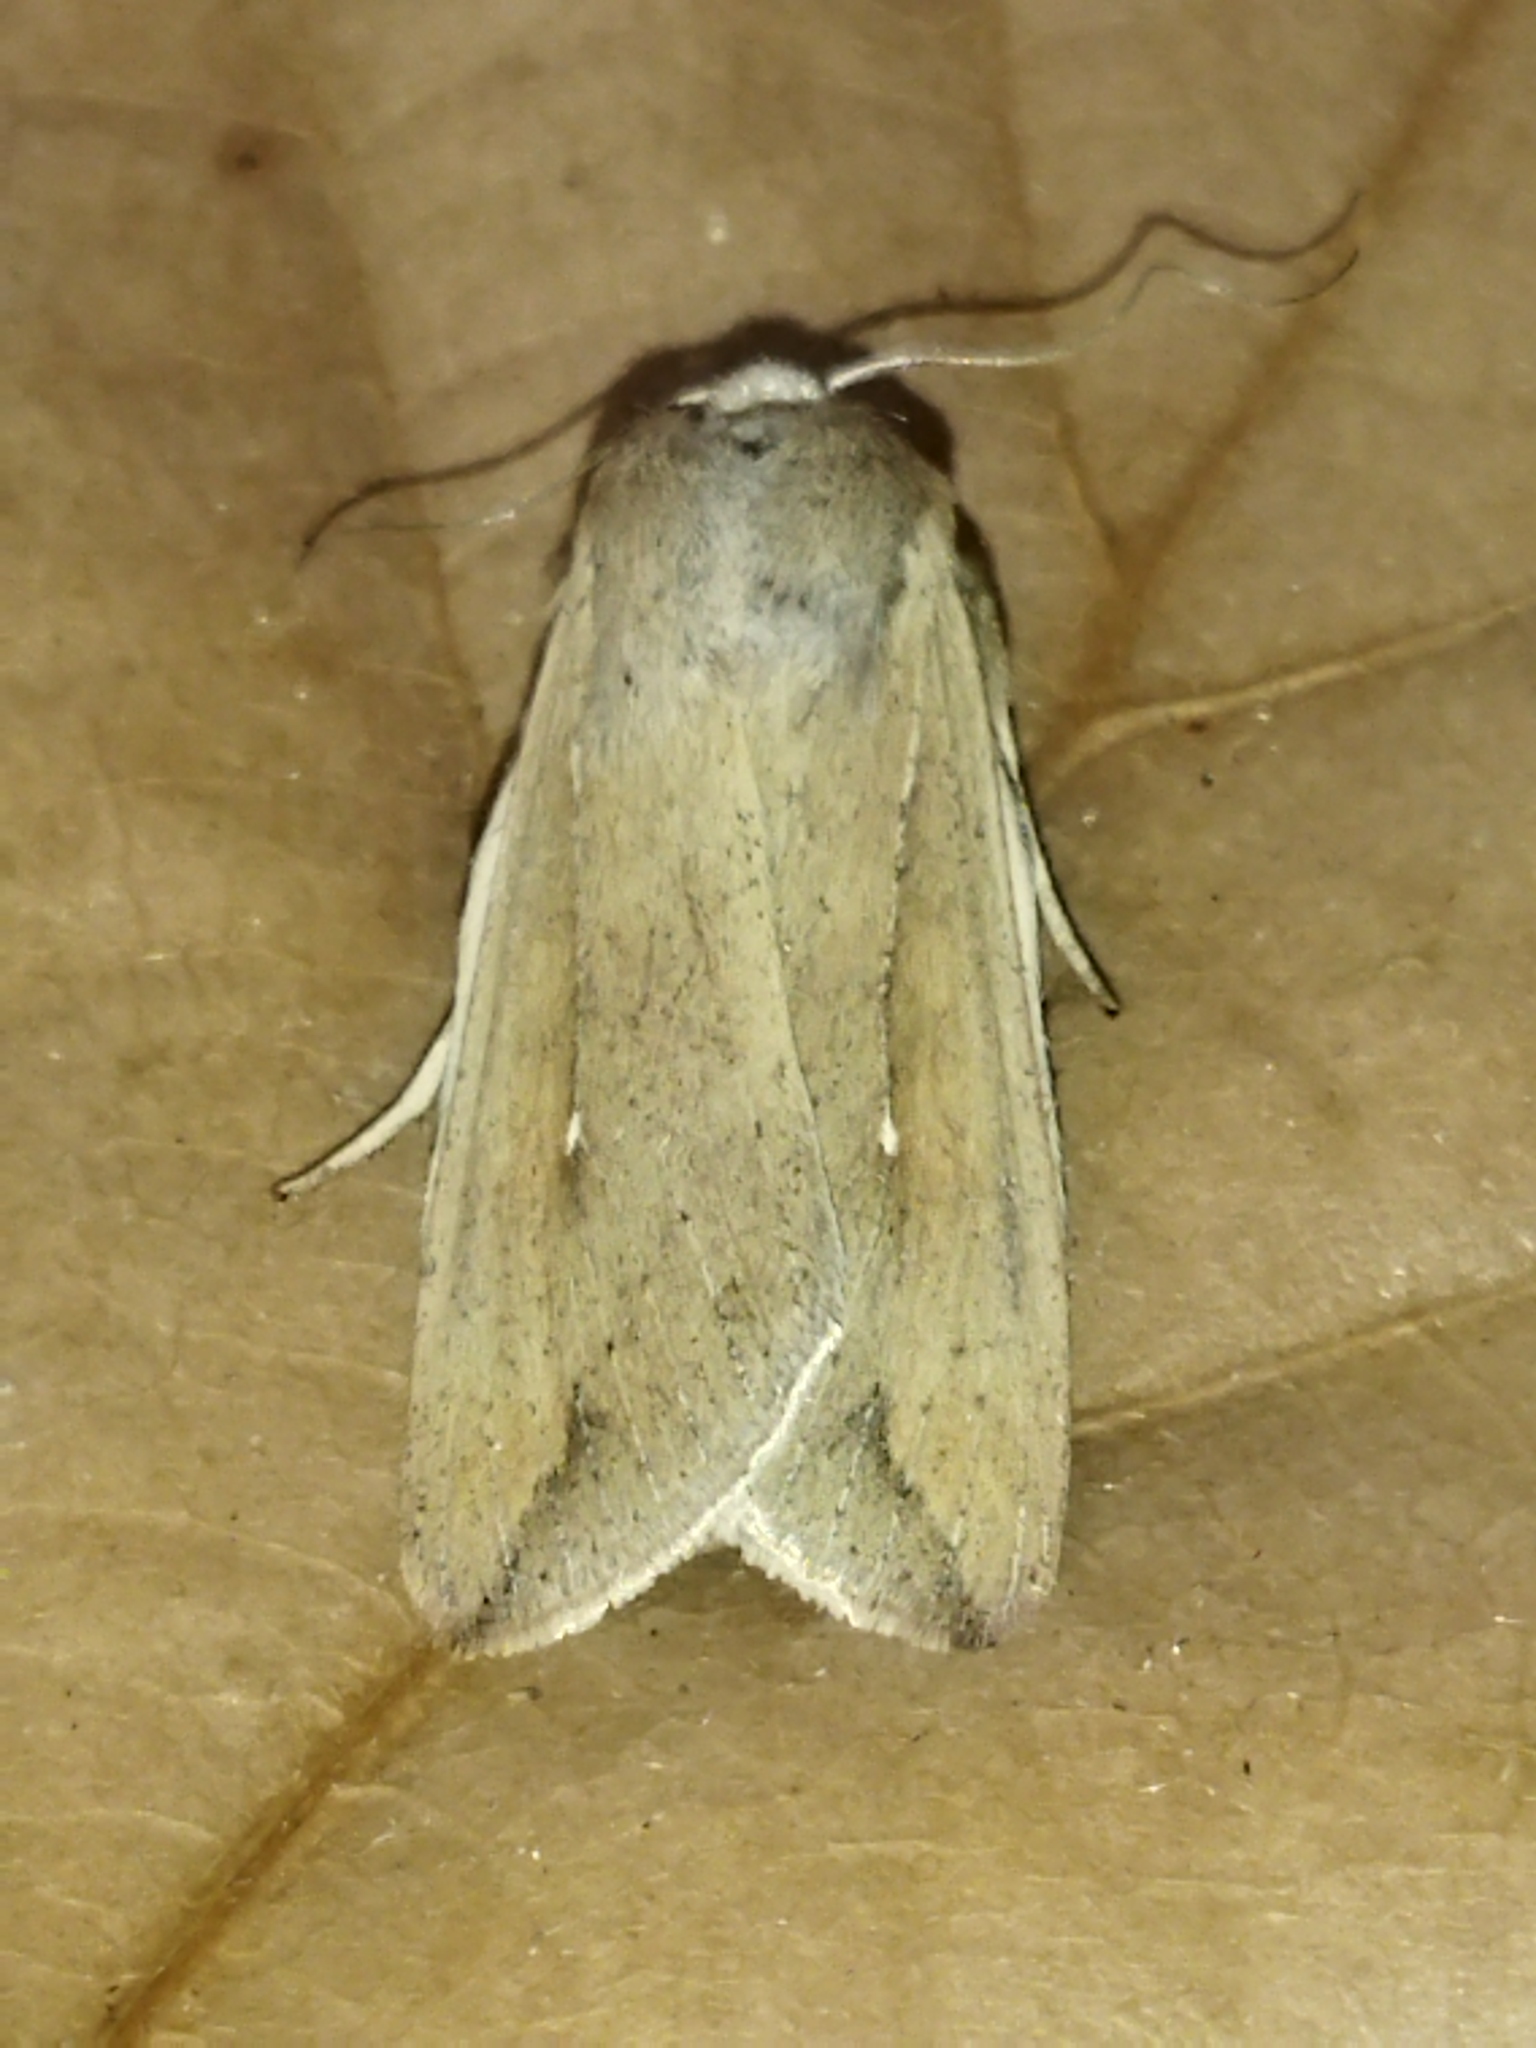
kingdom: Animalia
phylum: Arthropoda
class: Insecta
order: Lepidoptera
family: Noctuidae
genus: Mythimna
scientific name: Mythimna unipuncta
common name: White-speck
